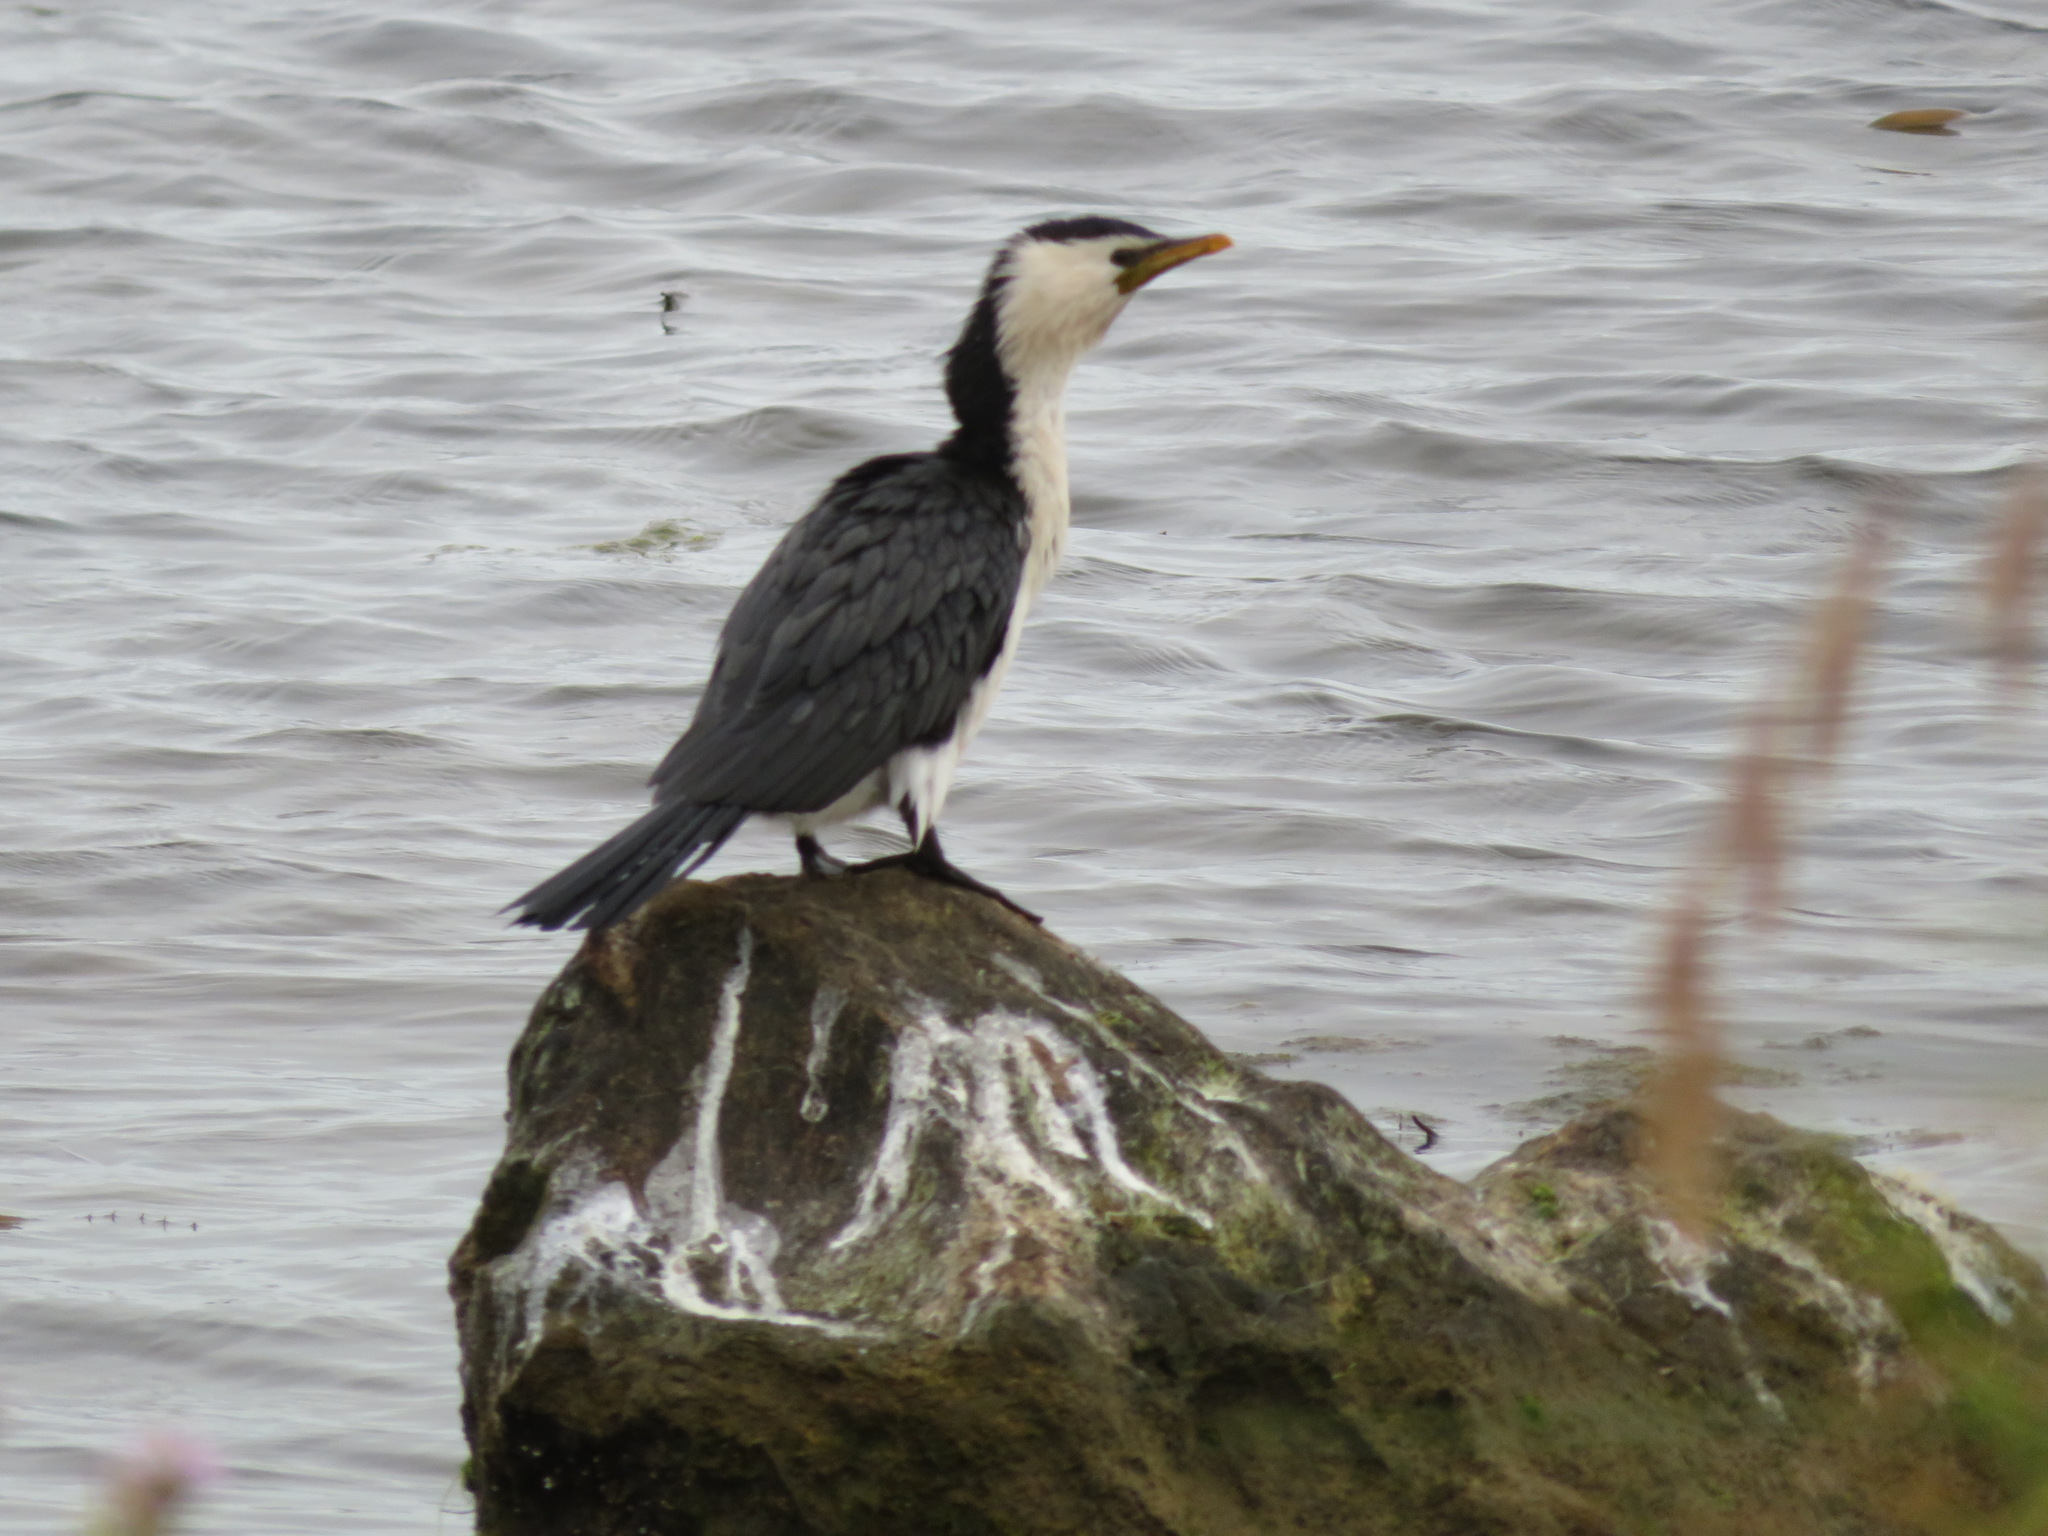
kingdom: Animalia
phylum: Chordata
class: Aves
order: Suliformes
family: Phalacrocoracidae
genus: Microcarbo
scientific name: Microcarbo melanoleucos
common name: Little pied cormorant
